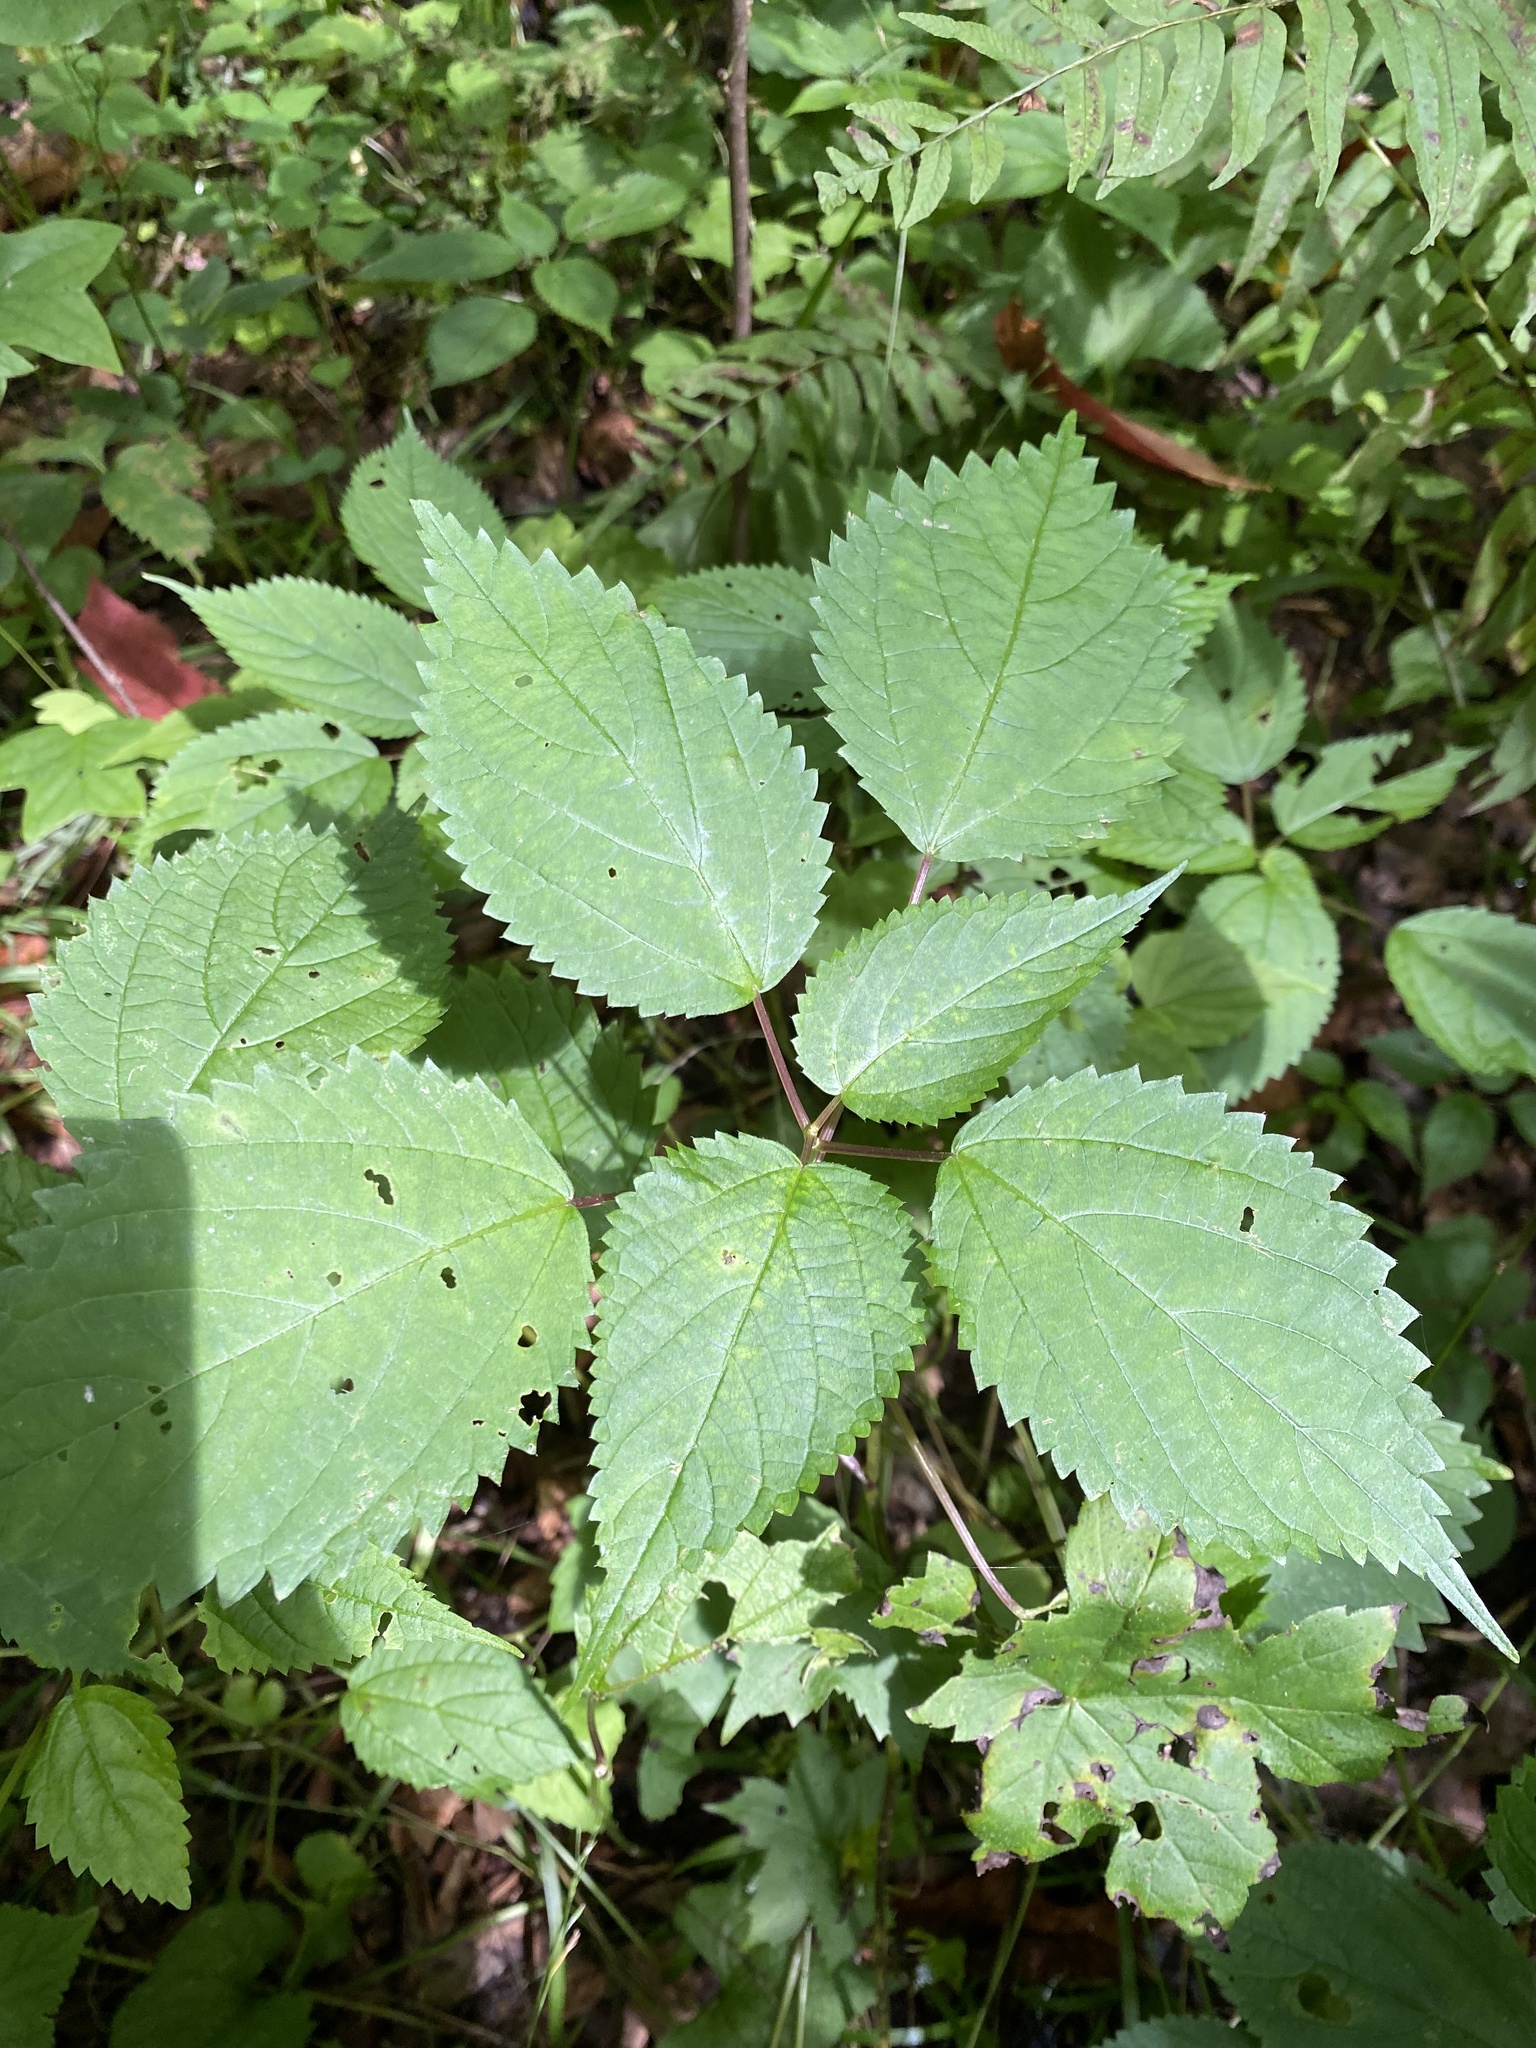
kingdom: Plantae
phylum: Tracheophyta
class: Magnoliopsida
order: Rosales
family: Urticaceae
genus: Boehmeria
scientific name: Boehmeria cylindrica
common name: Bog-hemp
